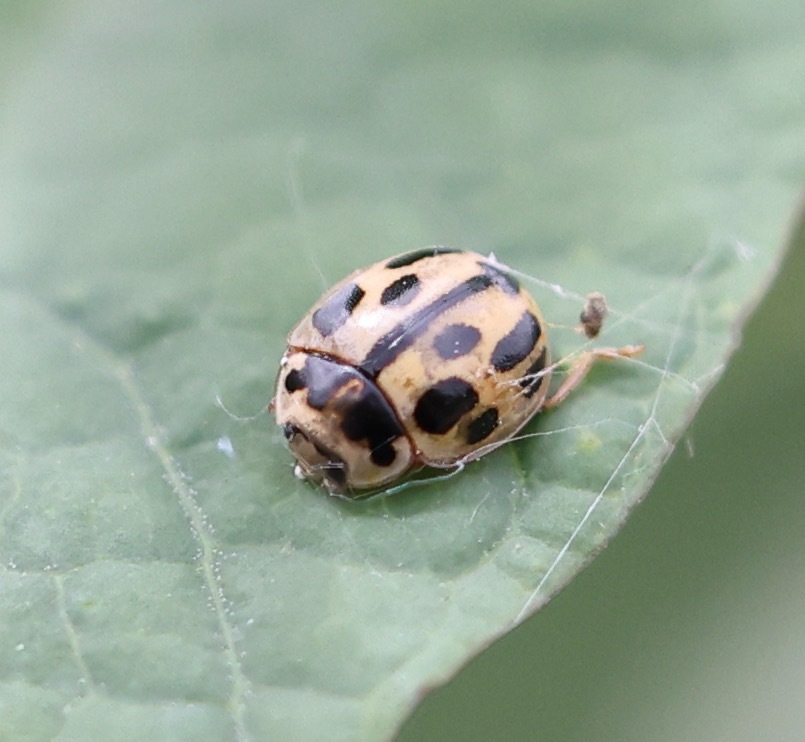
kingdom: Animalia
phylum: Arthropoda
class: Insecta
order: Coleoptera
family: Coccinellidae
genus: Propylaea
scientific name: Propylaea quatuordecimpunctata
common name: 14-spotted ladybird beetle
